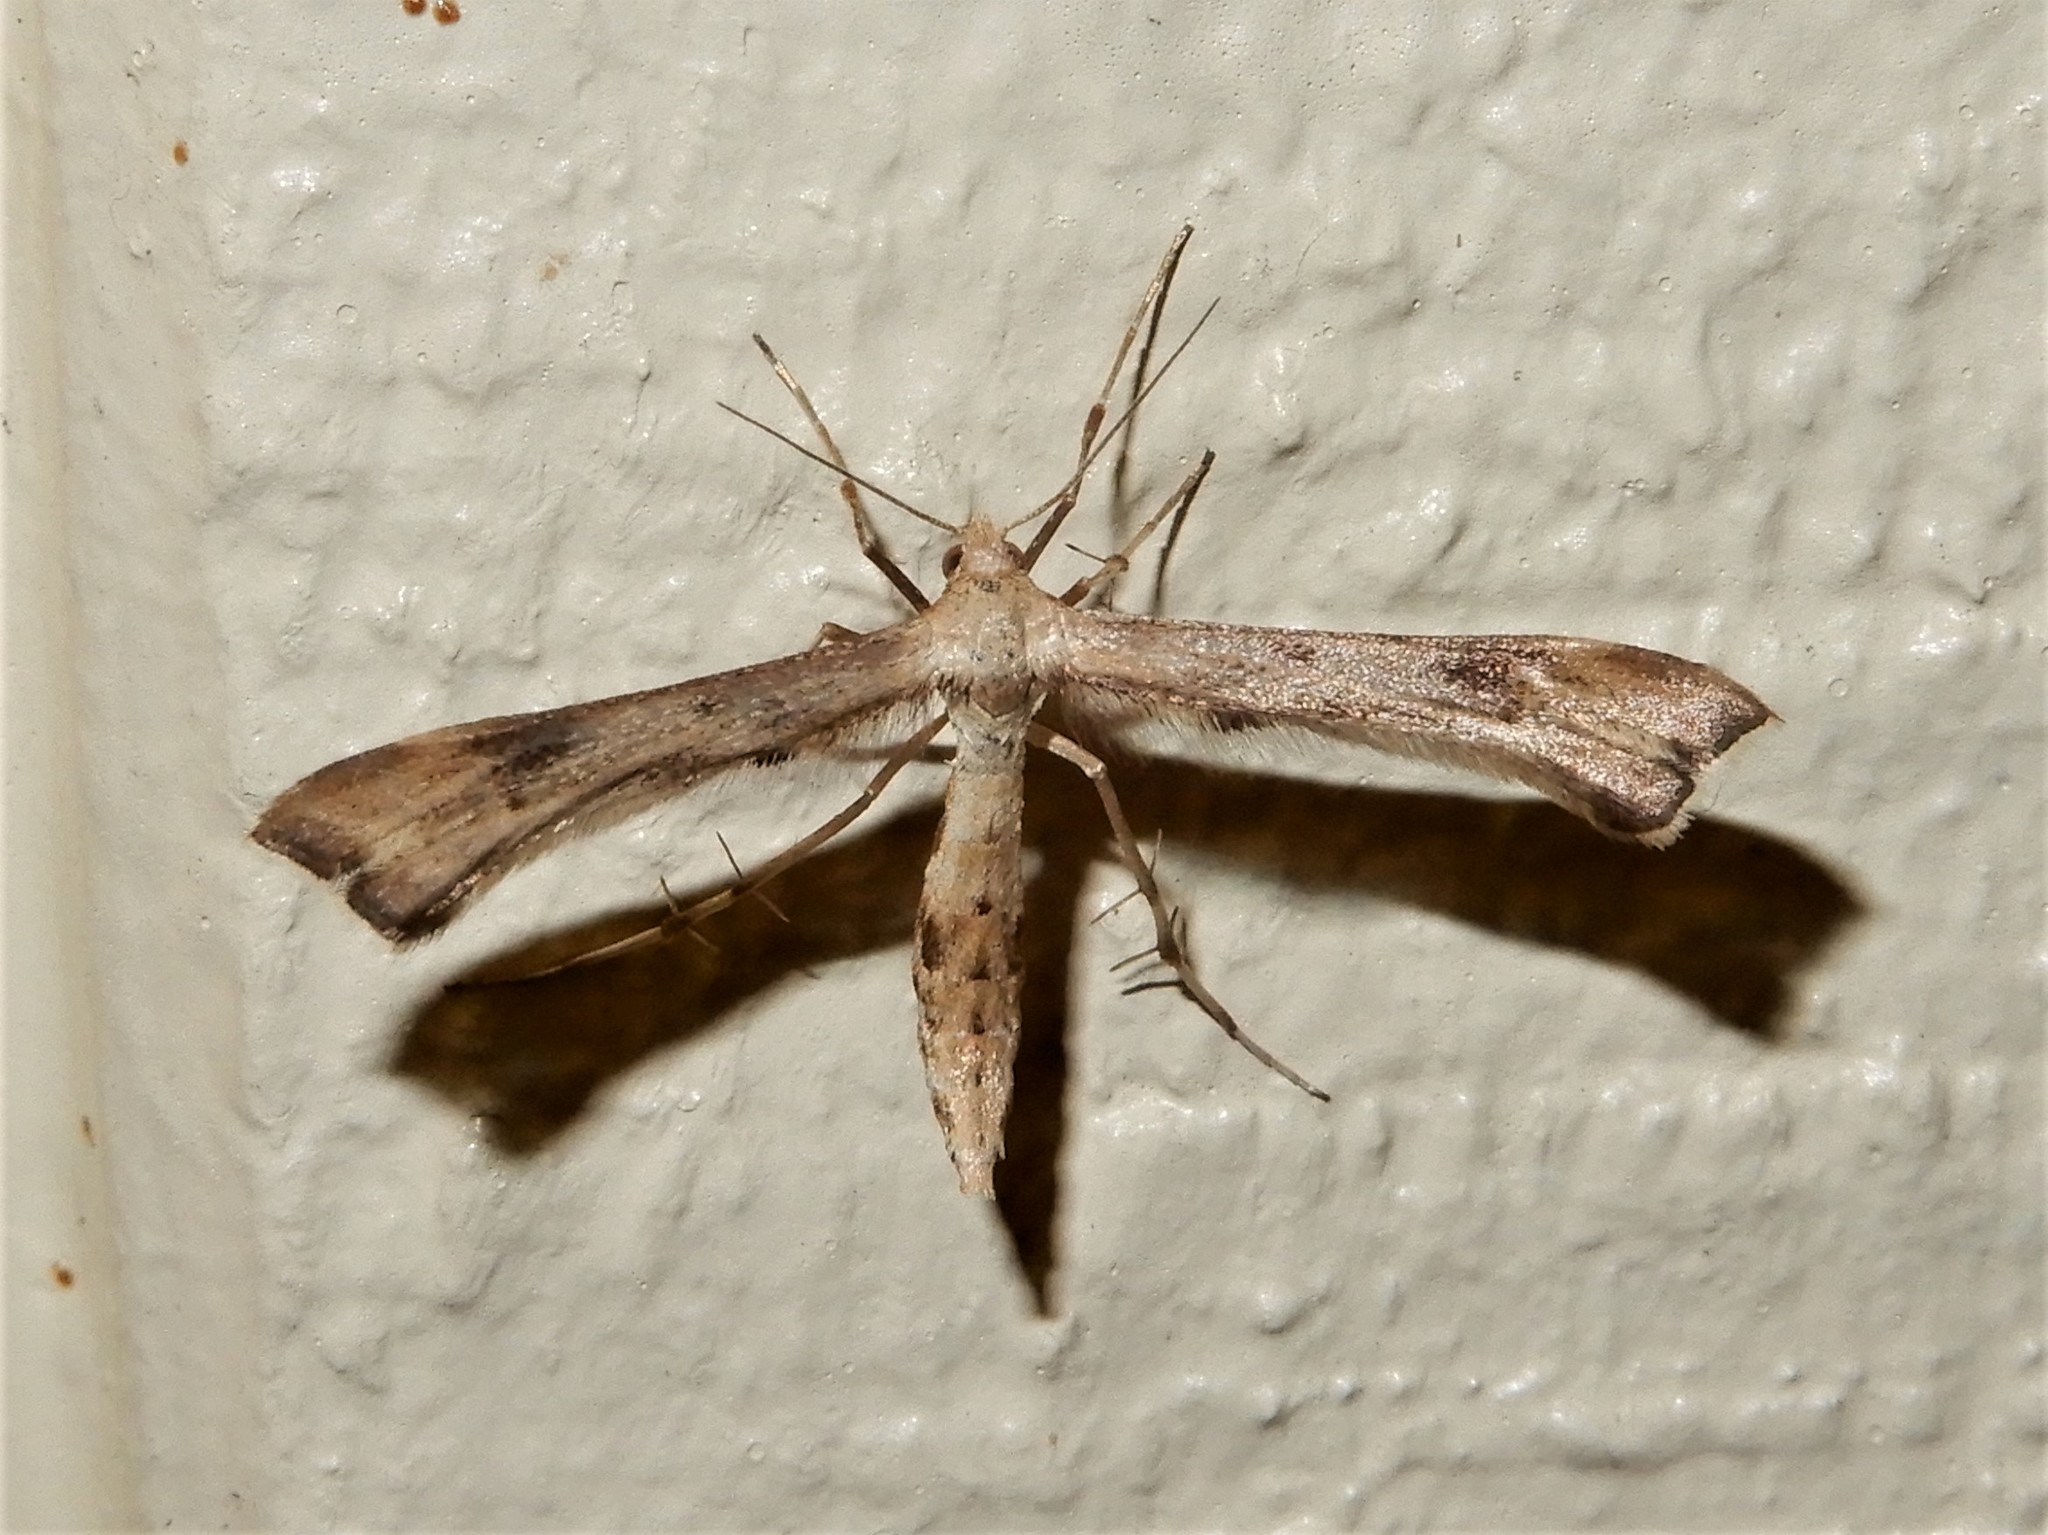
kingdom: Animalia
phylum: Arthropoda
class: Insecta
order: Lepidoptera
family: Pterophoridae
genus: Platyptilia
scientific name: Platyptilia isodactylus
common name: Hoary plume
